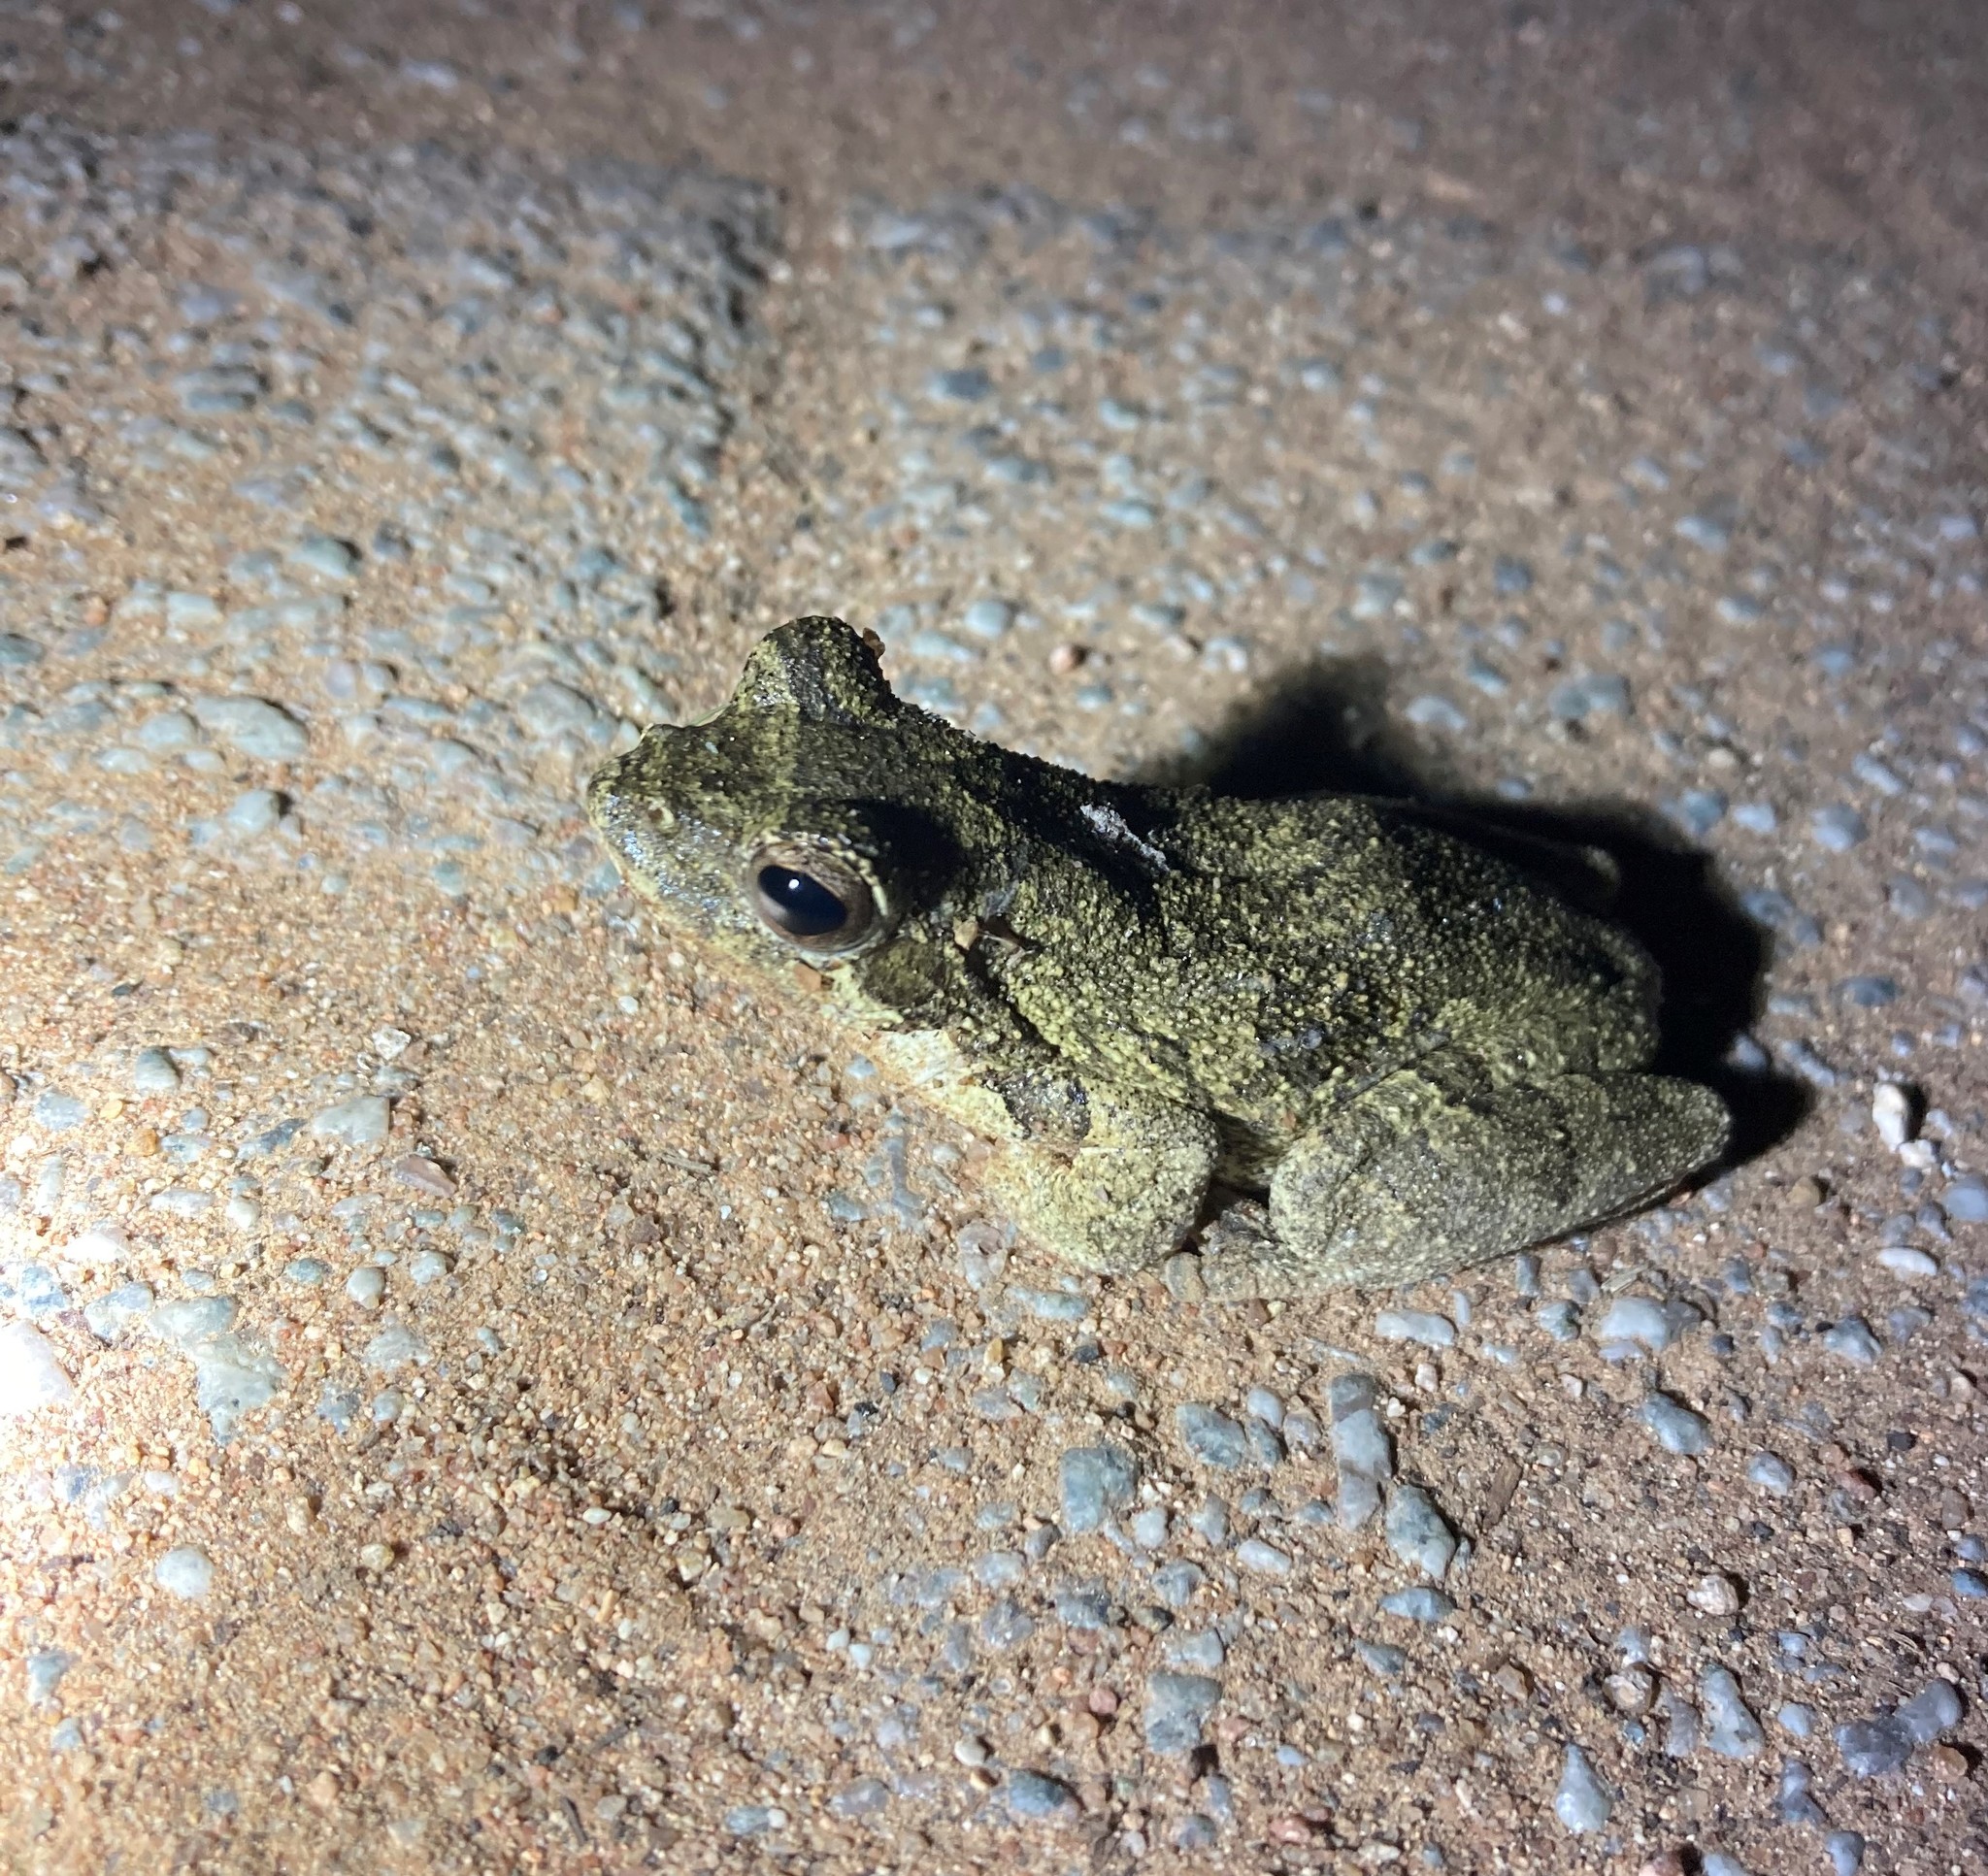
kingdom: Animalia
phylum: Chordata
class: Amphibia
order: Anura
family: Rhacophoridae
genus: Chiromantis
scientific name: Chiromantis xerampelina
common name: African gray treefrog
